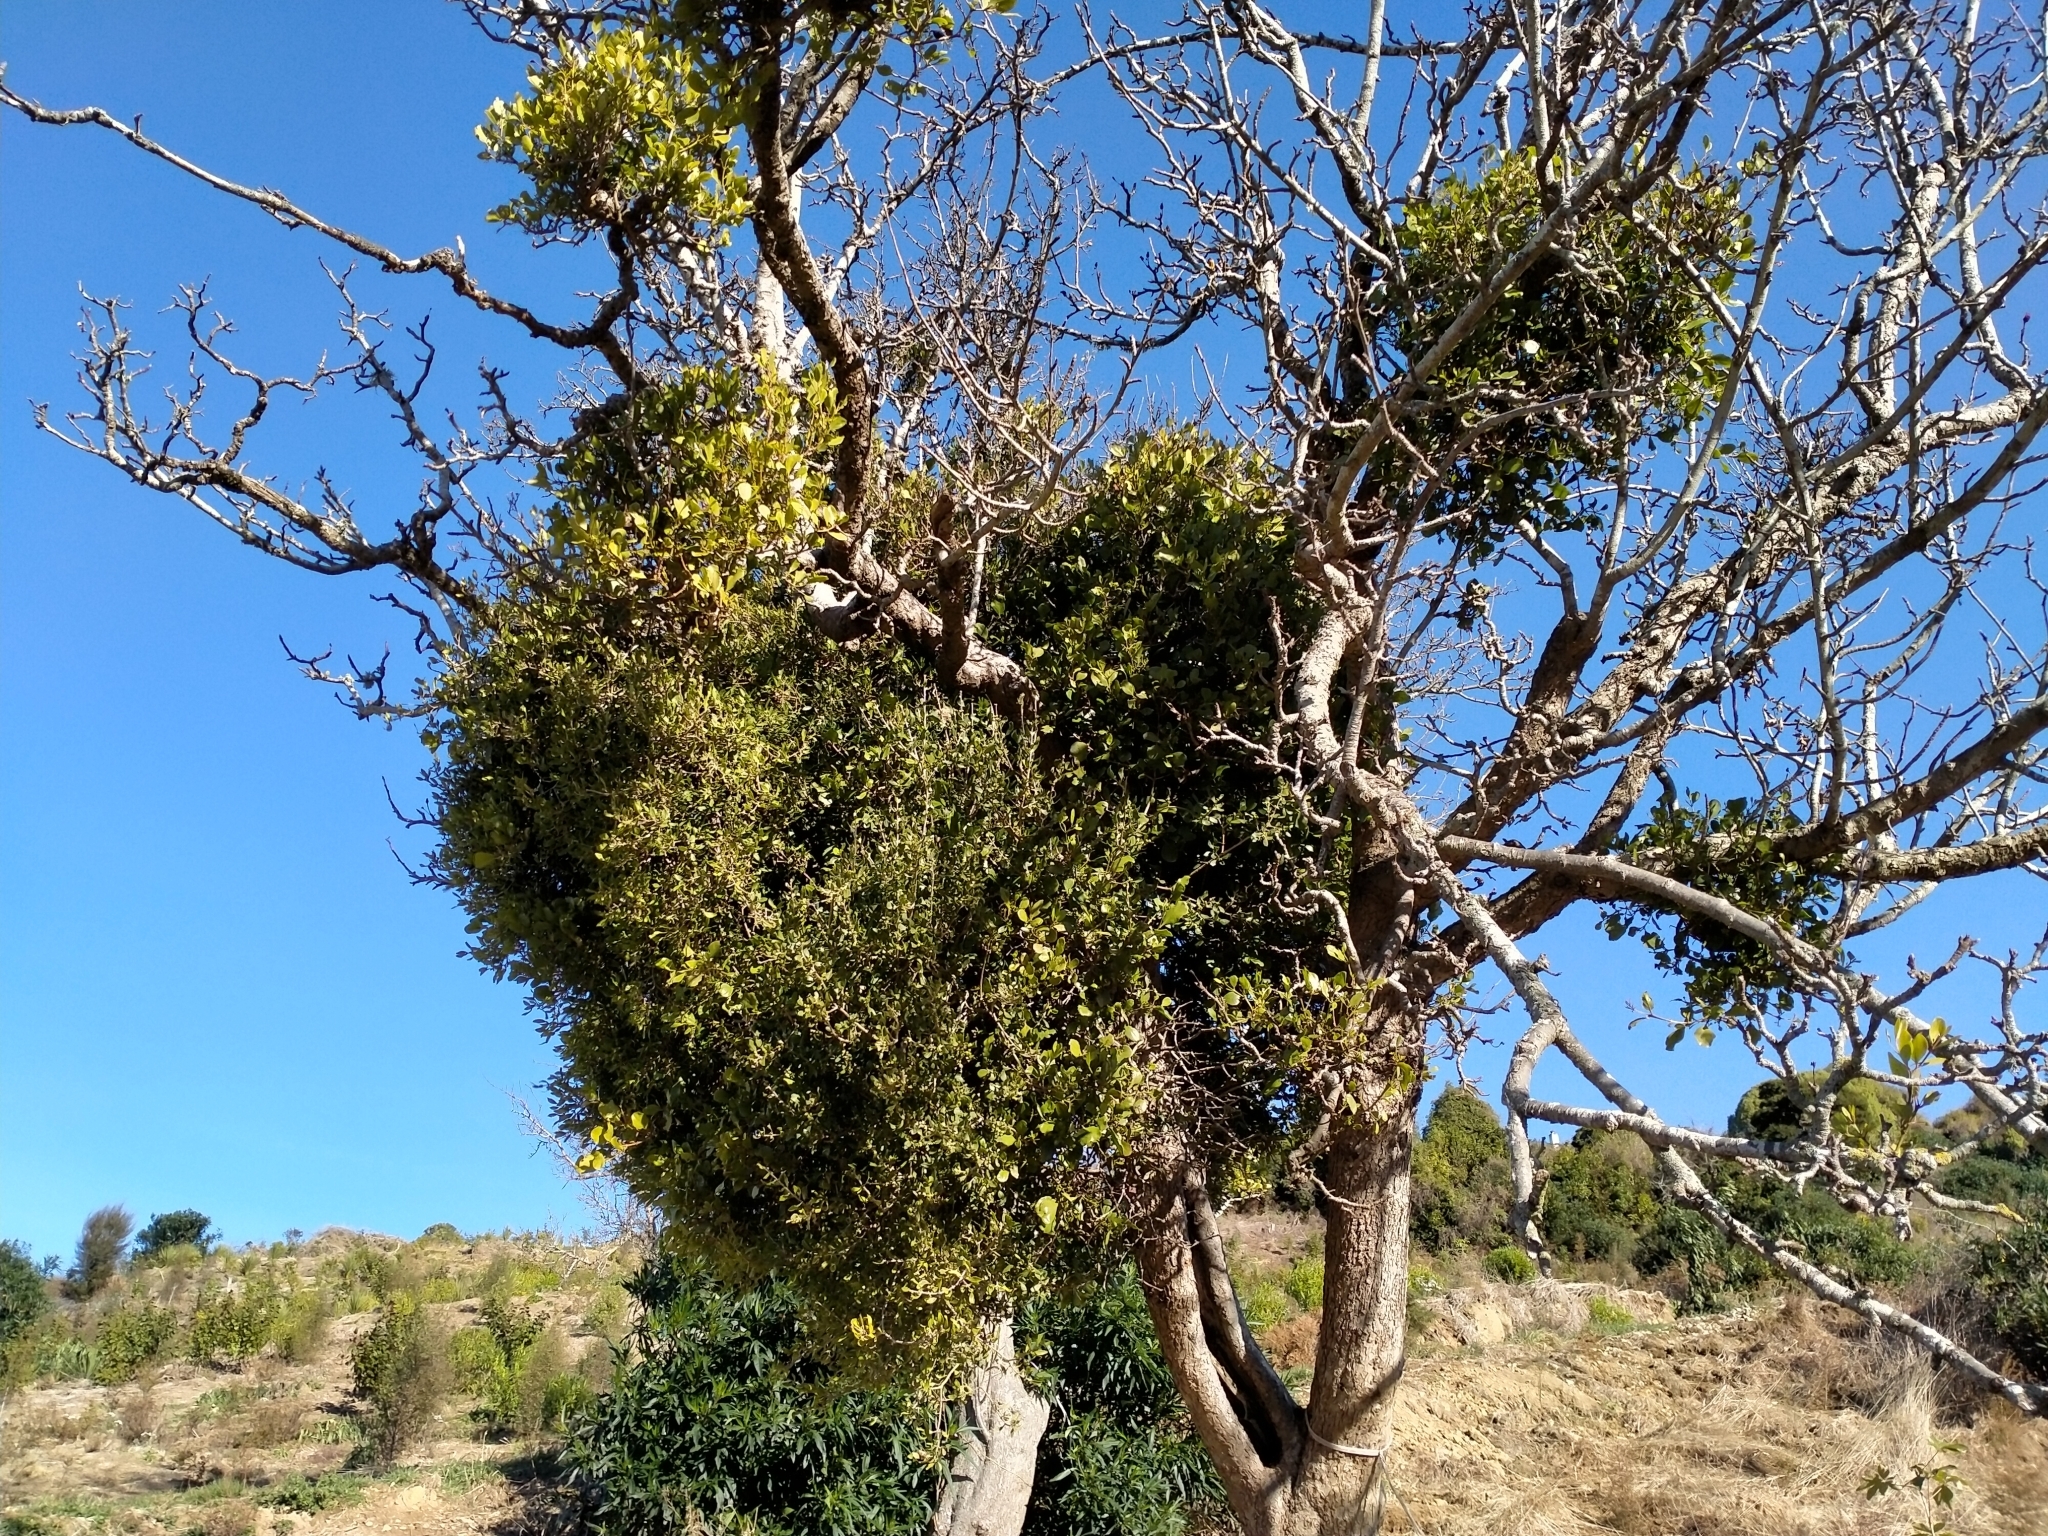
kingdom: Plantae
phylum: Tracheophyta
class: Magnoliopsida
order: Santalales
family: Loranthaceae
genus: Tupeia
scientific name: Tupeia antarctica
